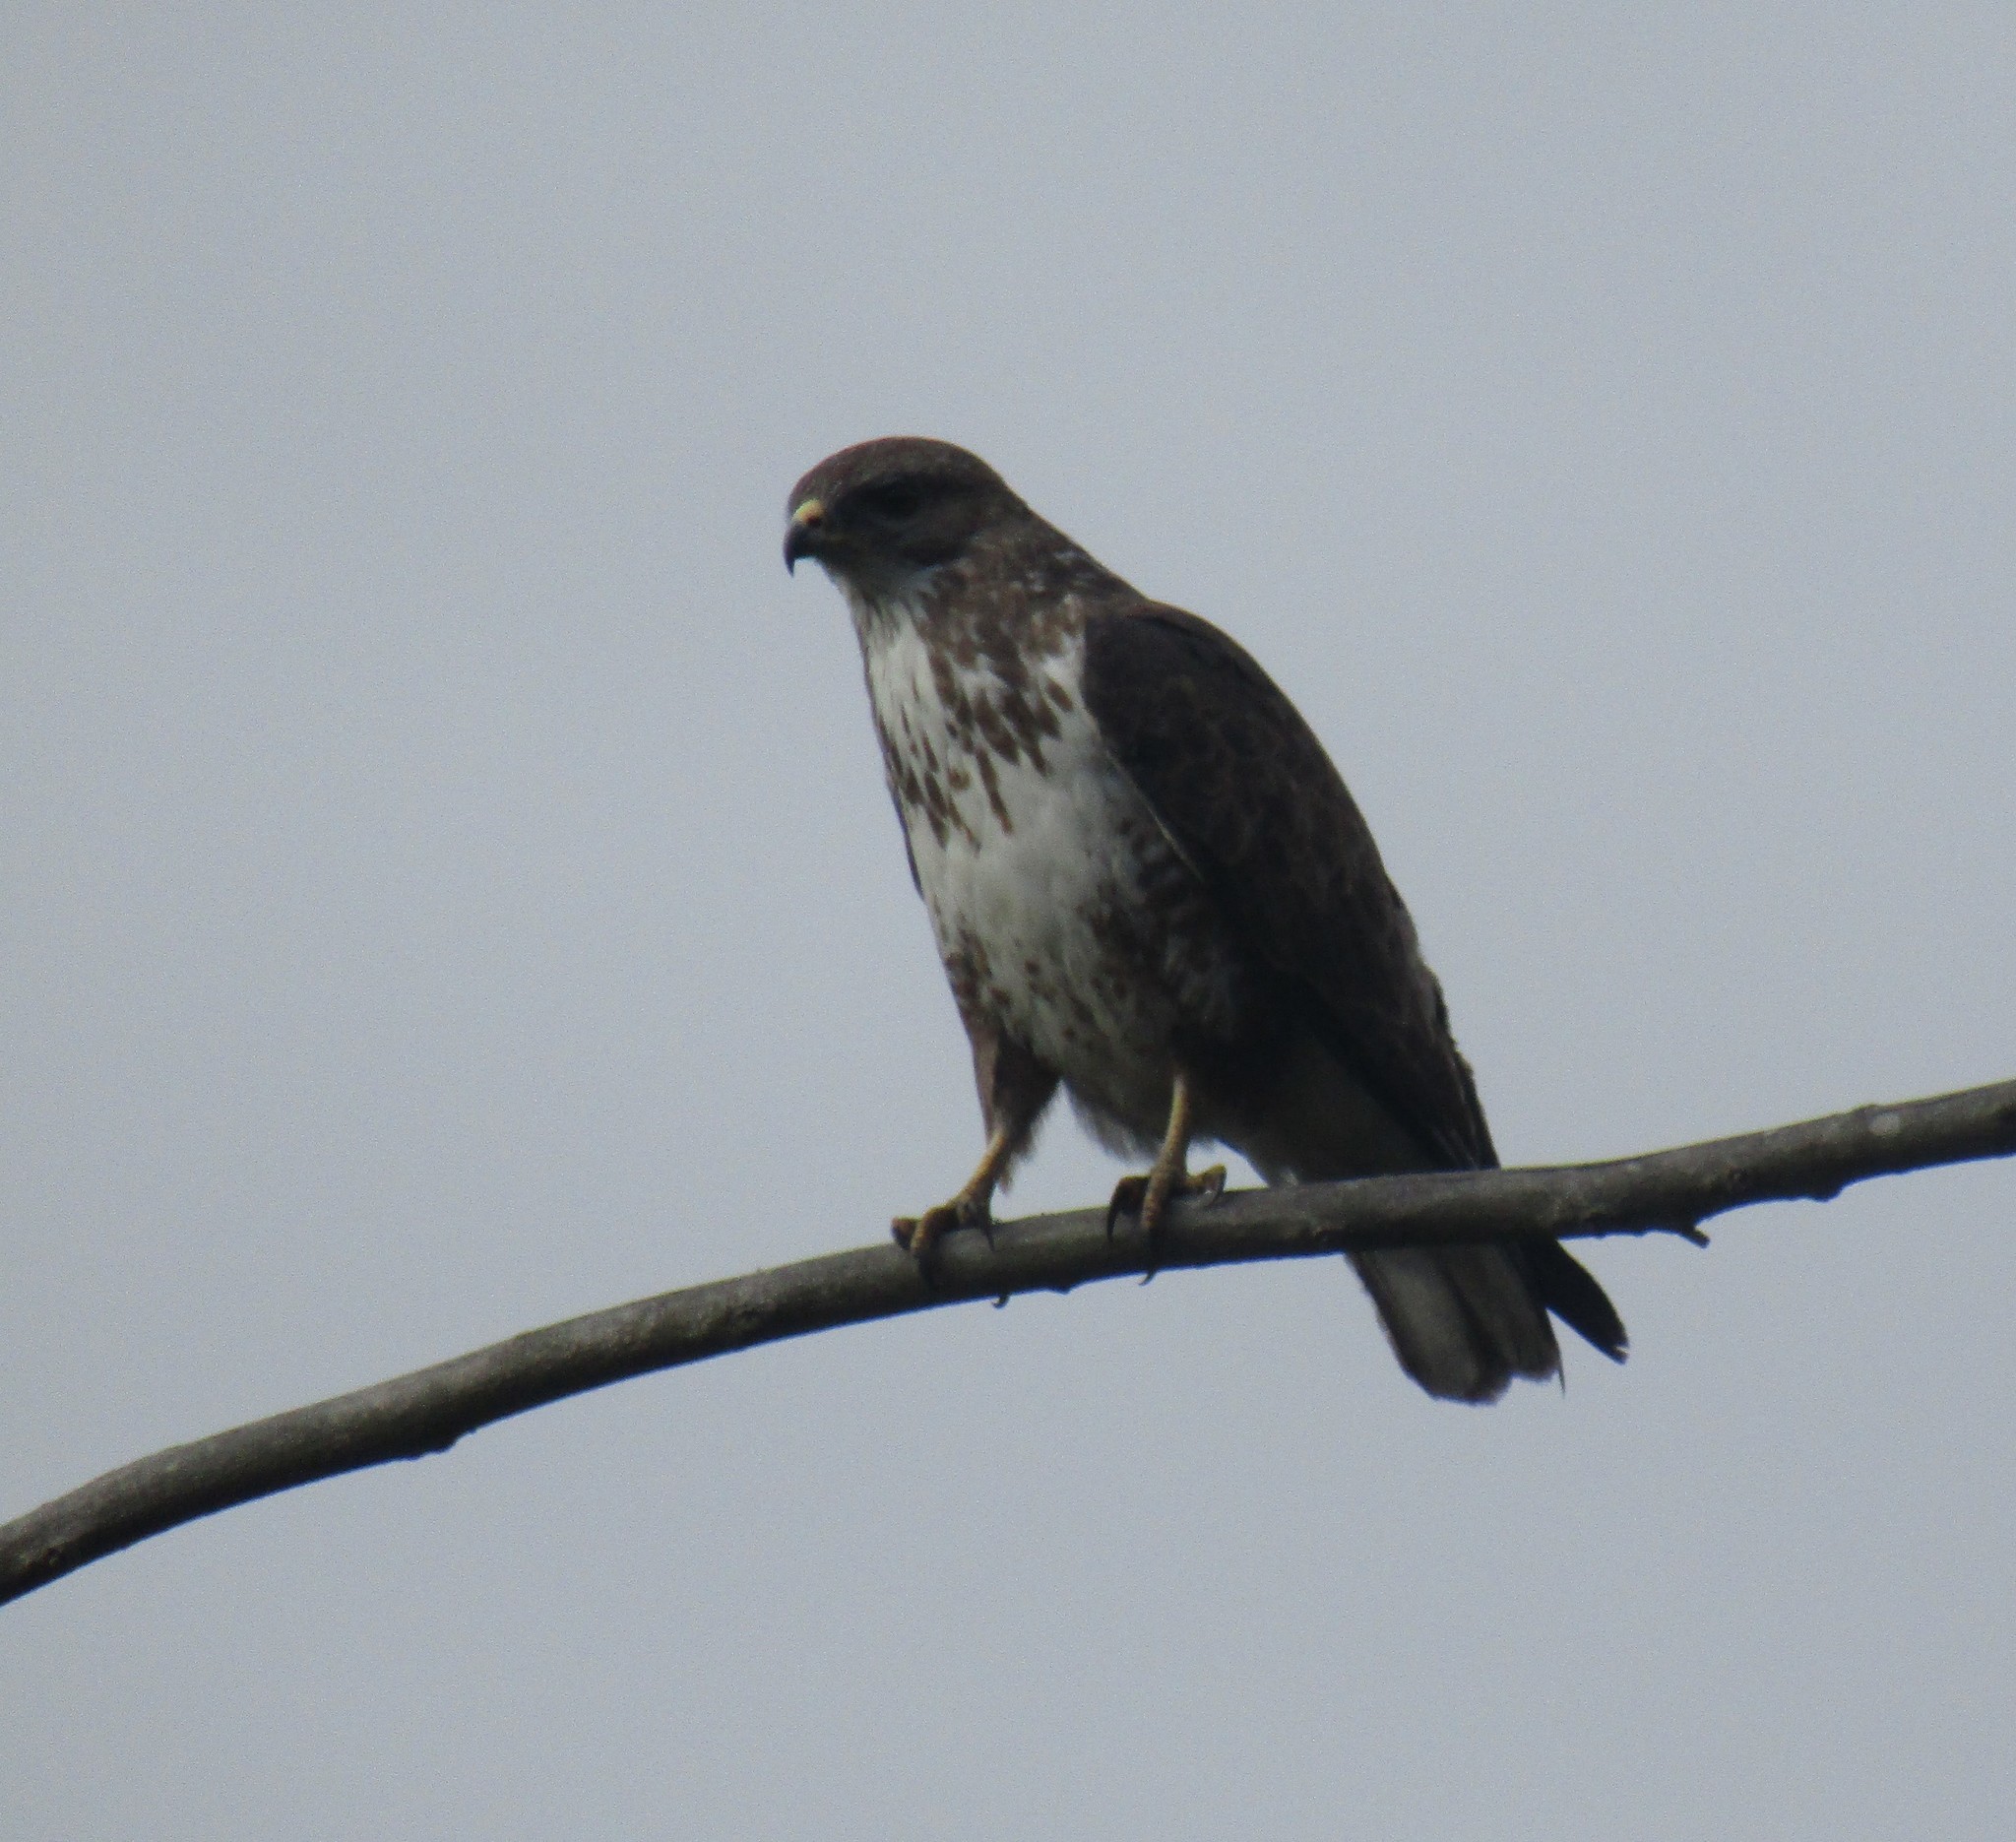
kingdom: Animalia
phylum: Chordata
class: Aves
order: Accipitriformes
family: Accipitridae
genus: Buteo
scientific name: Buteo trizonatus
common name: Forest buzzard
